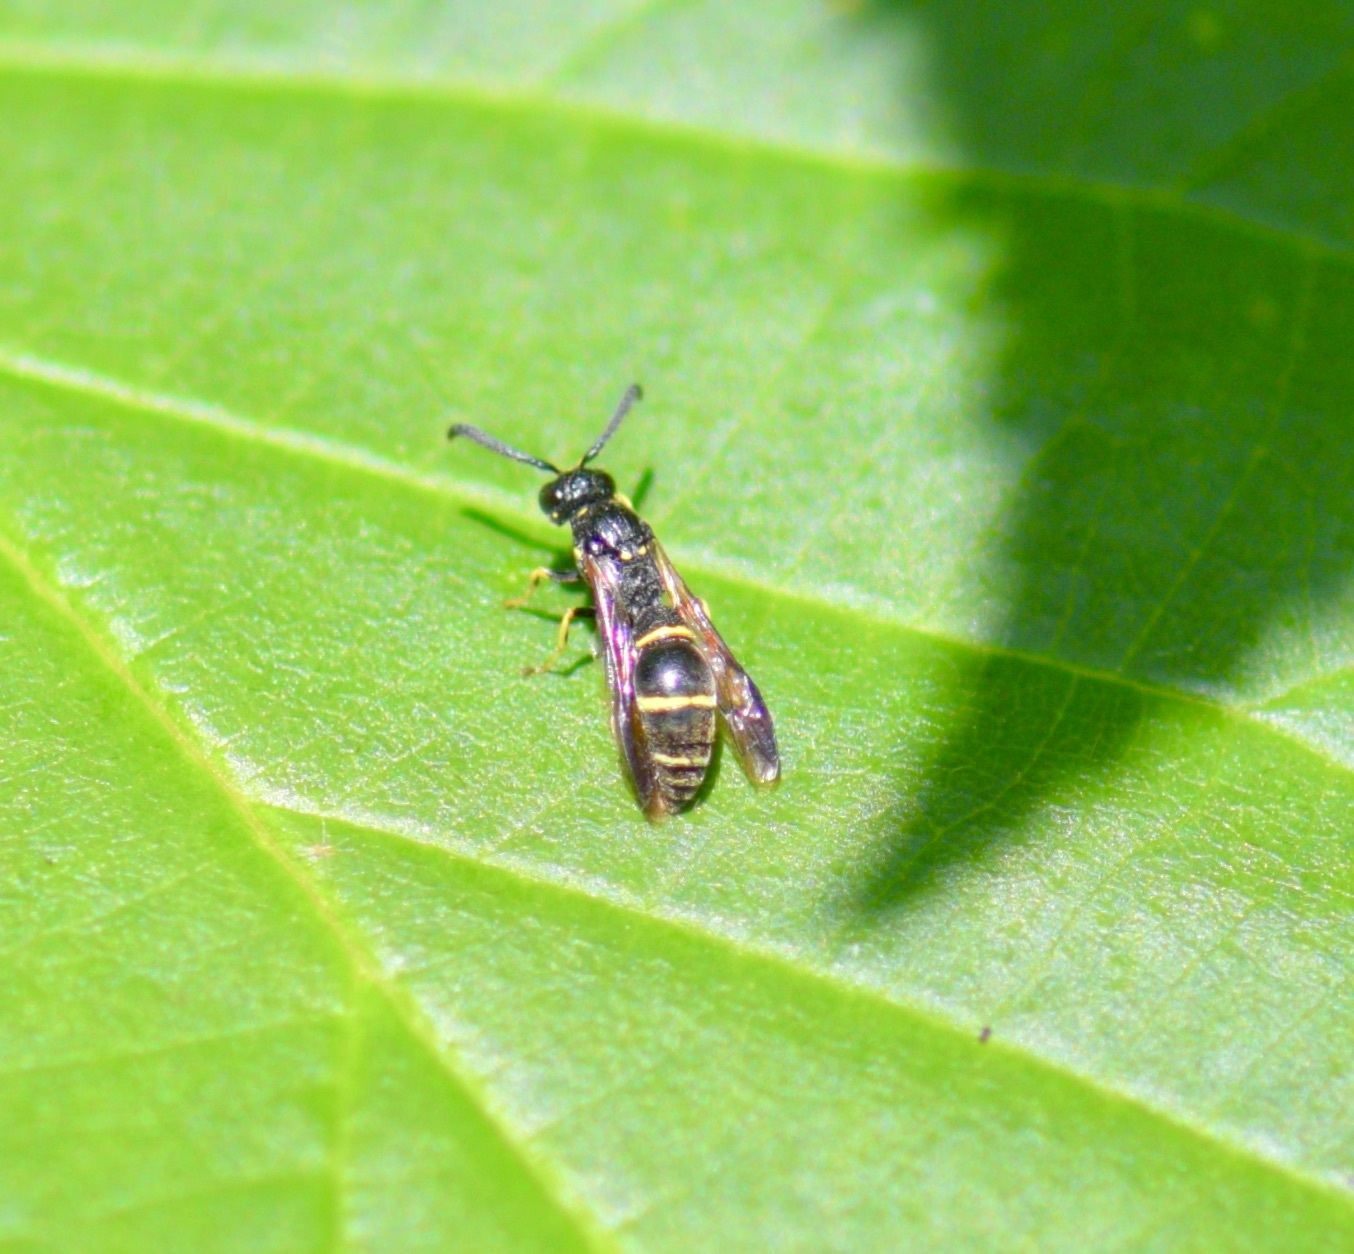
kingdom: Animalia
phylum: Arthropoda
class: Insecta
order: Hymenoptera
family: Eumenidae
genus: Symmorphus
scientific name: Symmorphus
